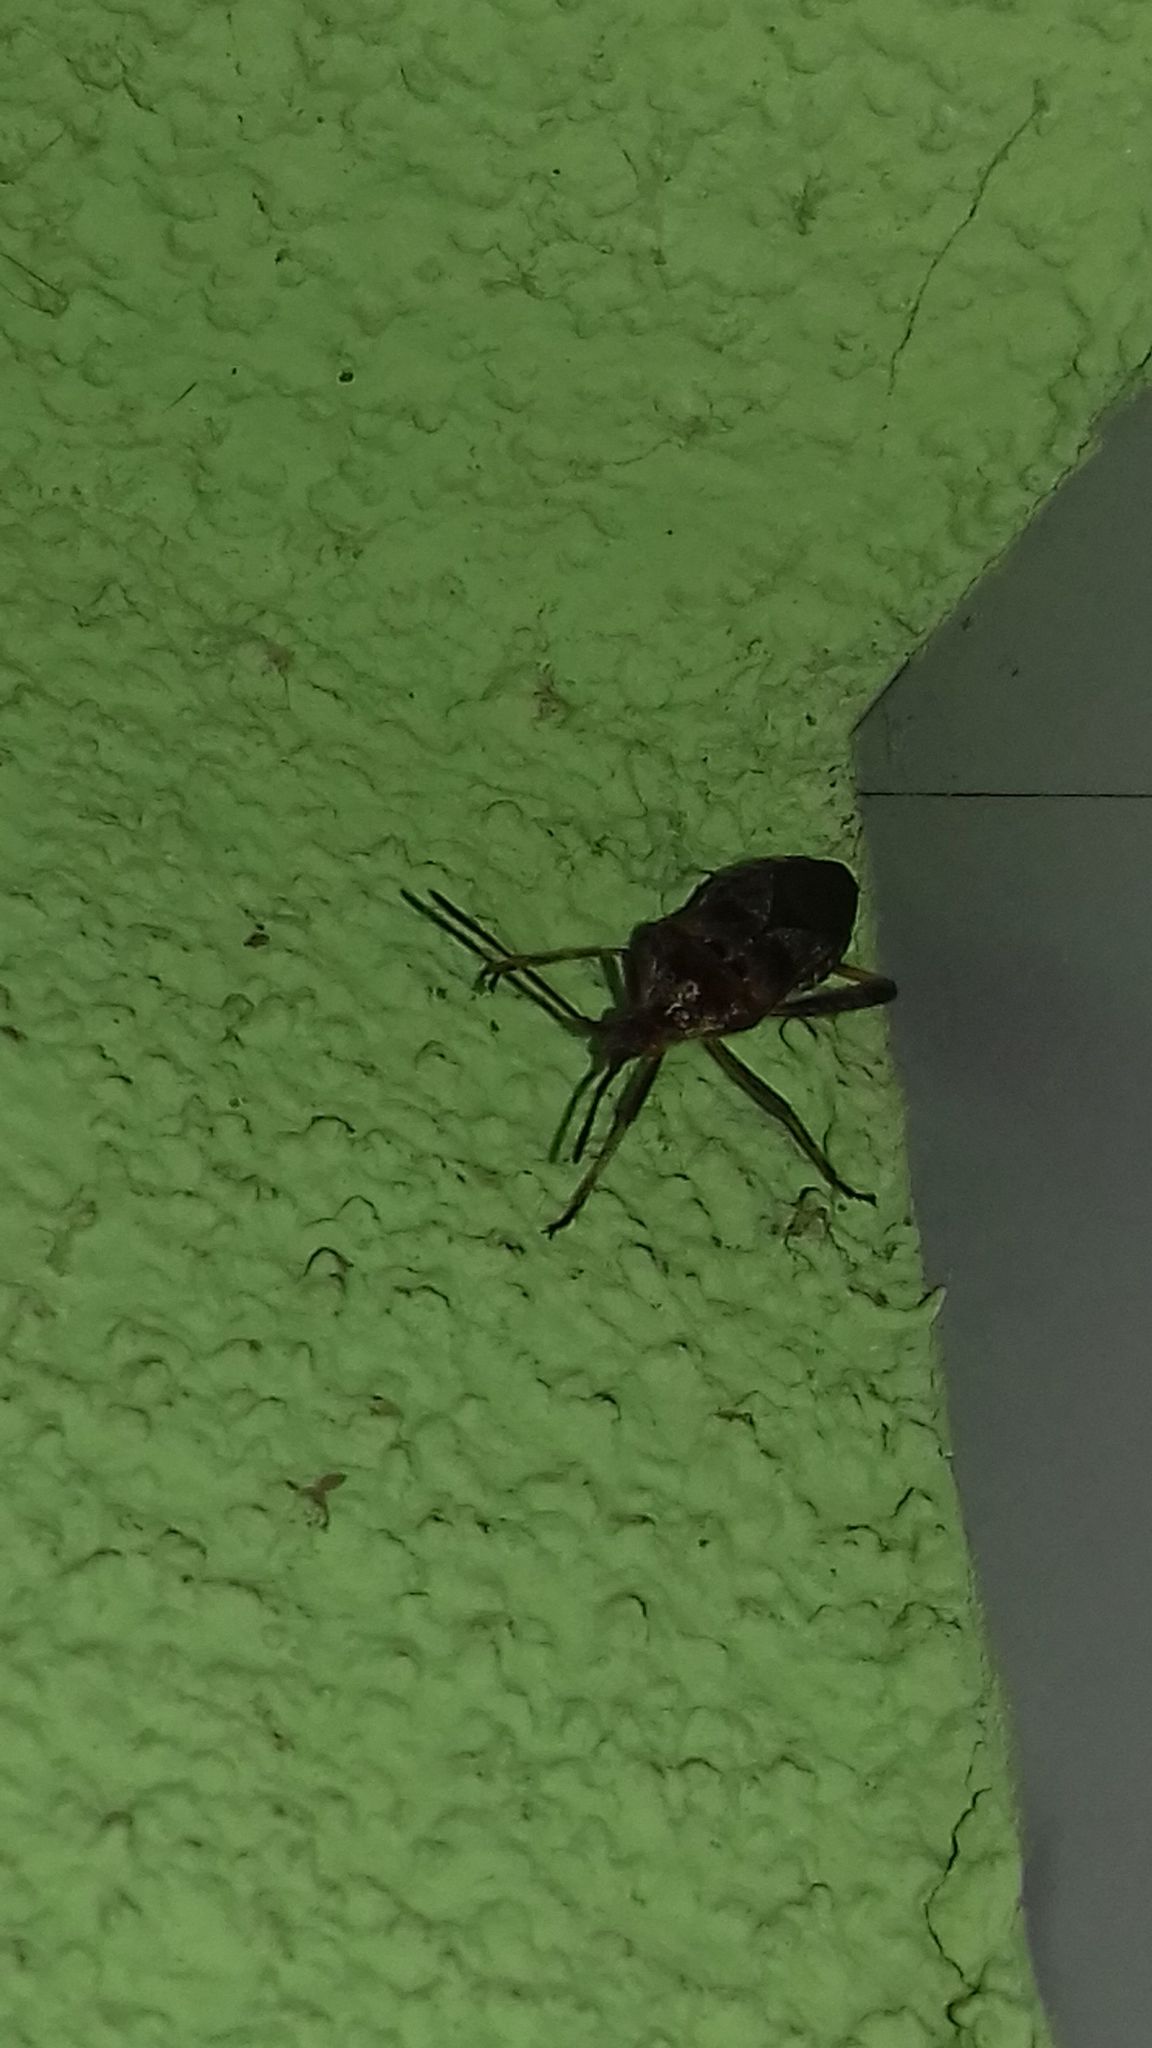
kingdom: Animalia
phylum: Arthropoda
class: Insecta
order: Hemiptera
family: Coreidae
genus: Leptoglossus
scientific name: Leptoglossus occidentalis
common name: Western conifer-seed bug
